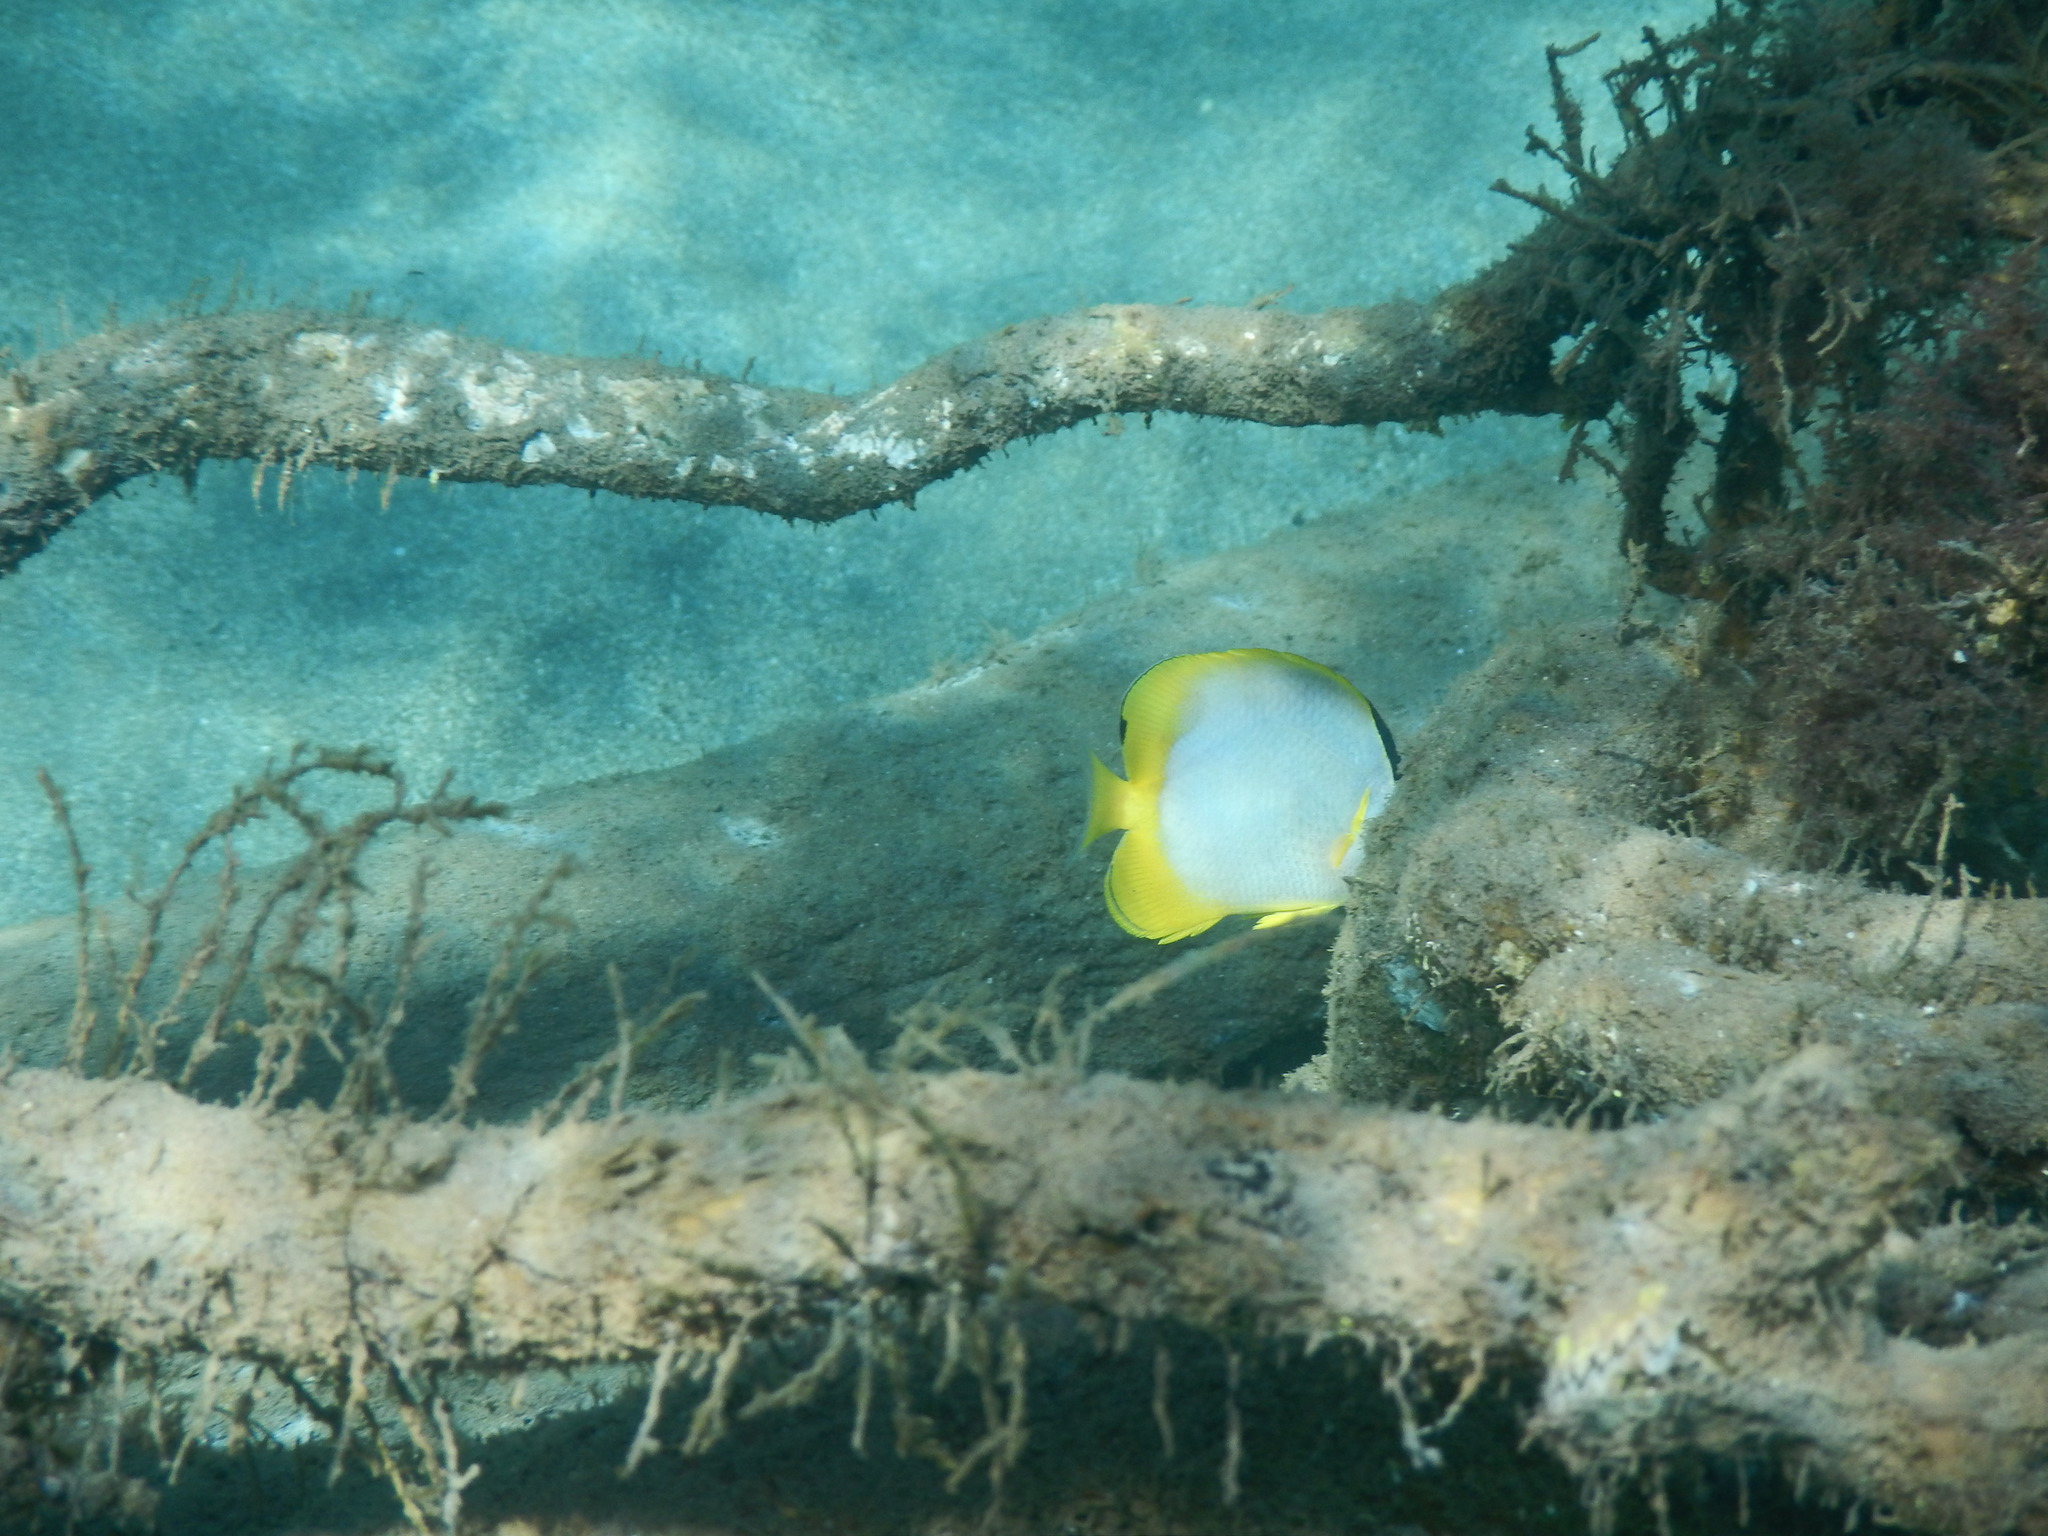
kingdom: Animalia
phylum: Chordata
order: Perciformes
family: Chaetodontidae
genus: Chaetodon
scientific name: Chaetodon ocellatus
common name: Spotfin butterflyfish
